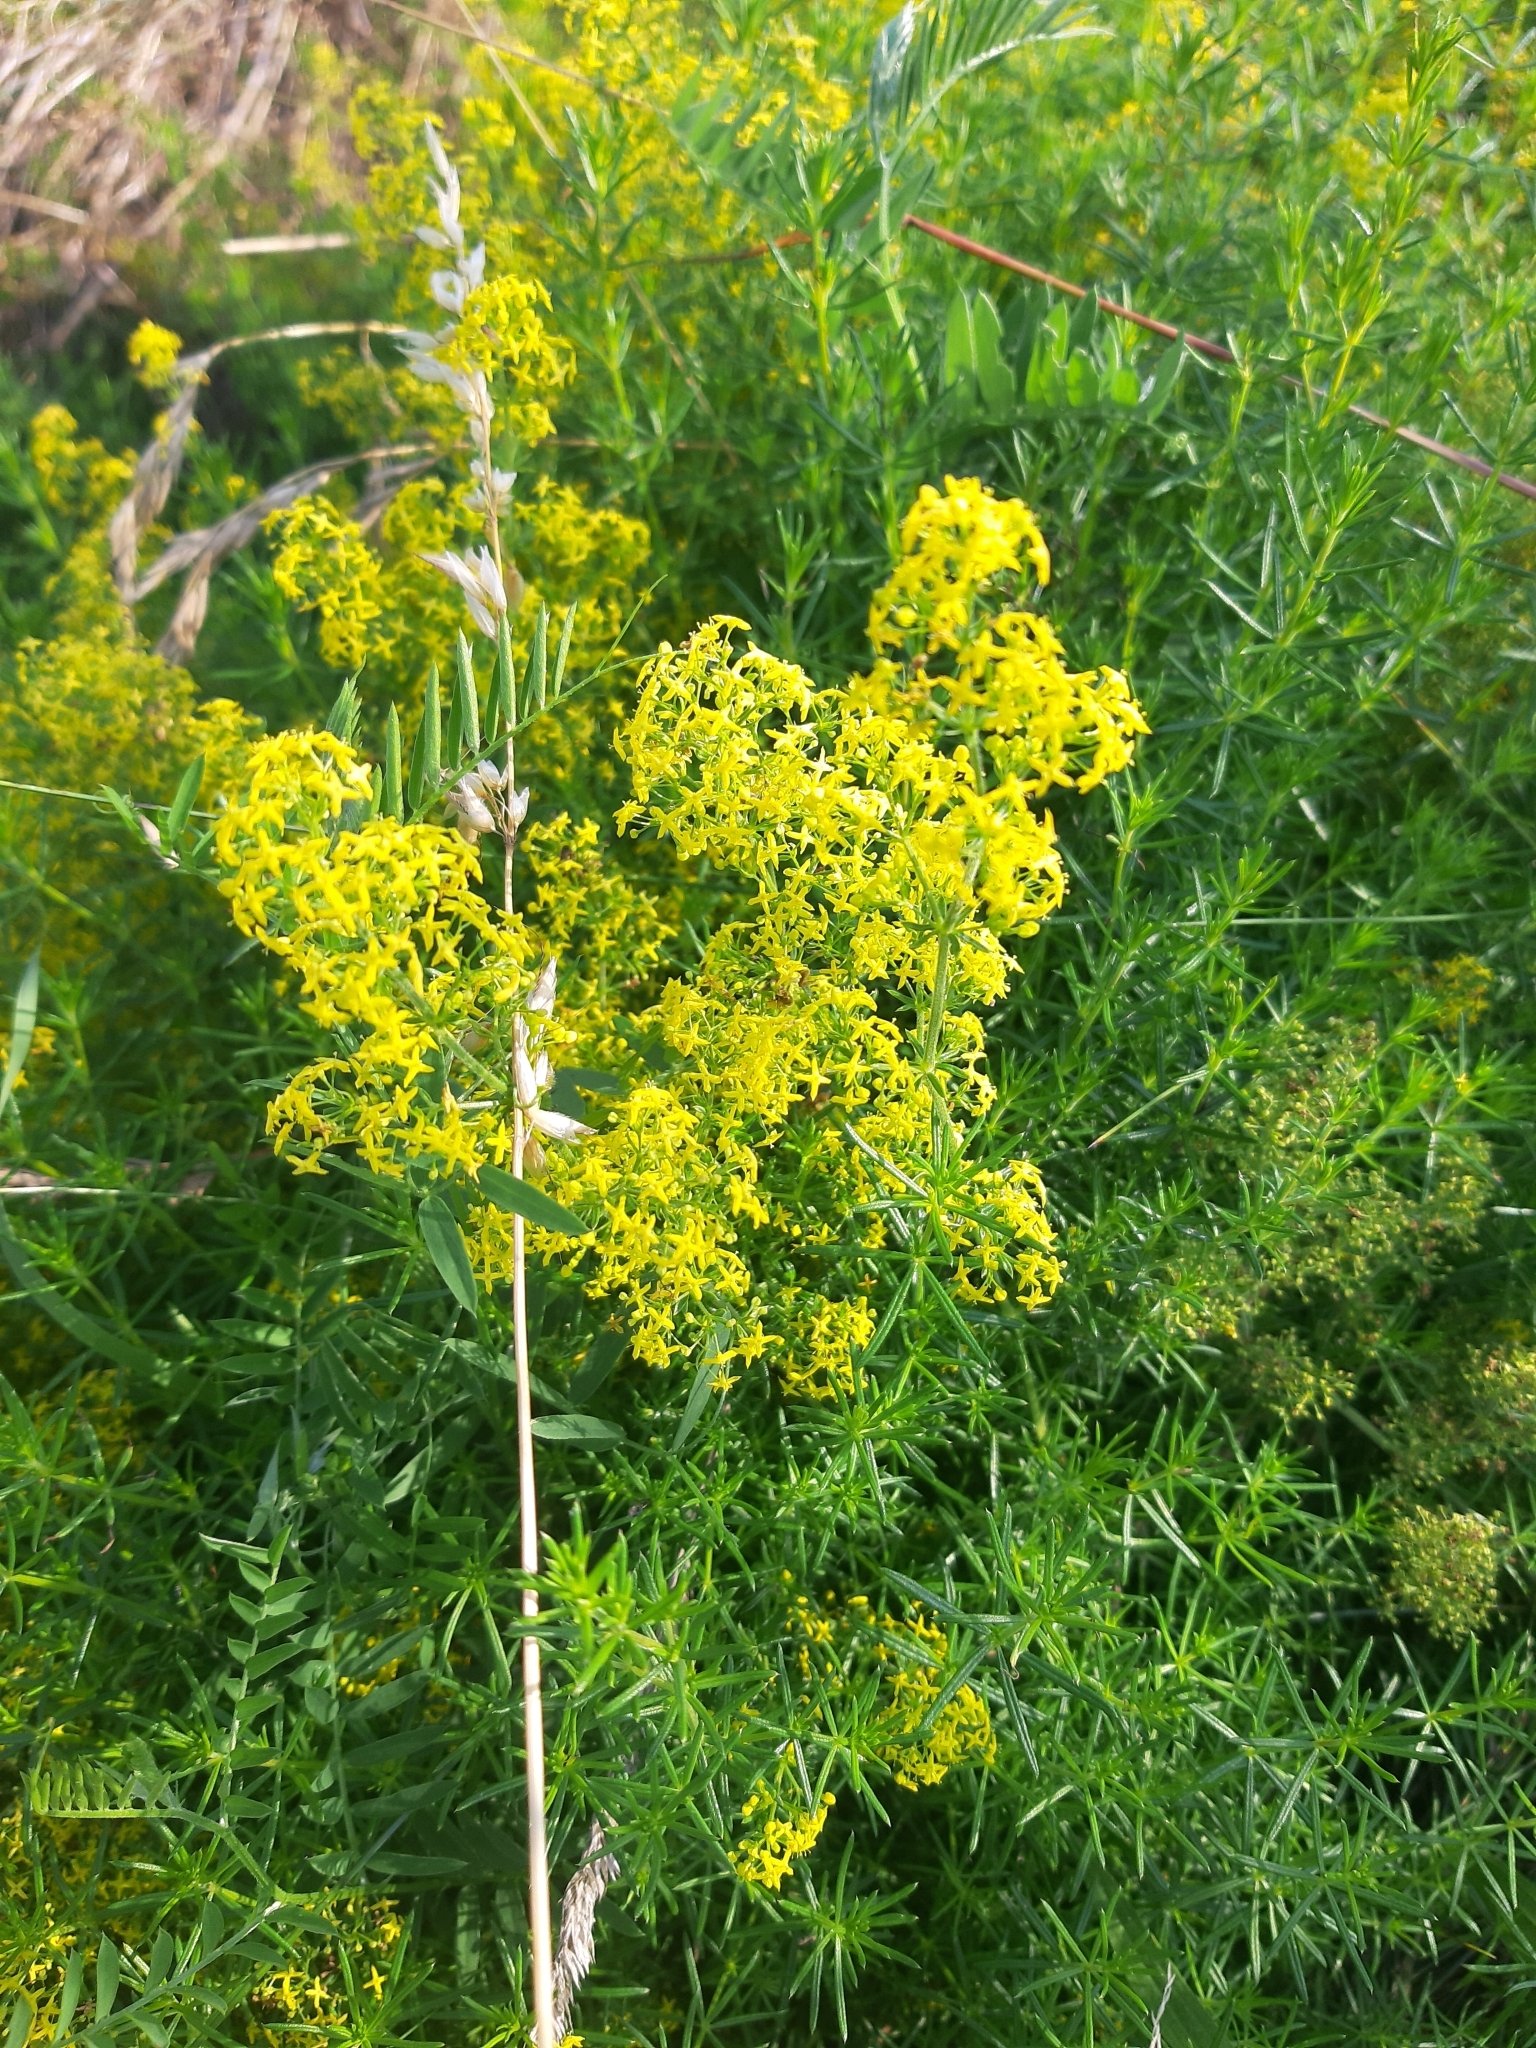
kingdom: Plantae
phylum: Tracheophyta
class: Magnoliopsida
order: Gentianales
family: Rubiaceae
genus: Galium
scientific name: Galium verum
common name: Lady's bedstraw
